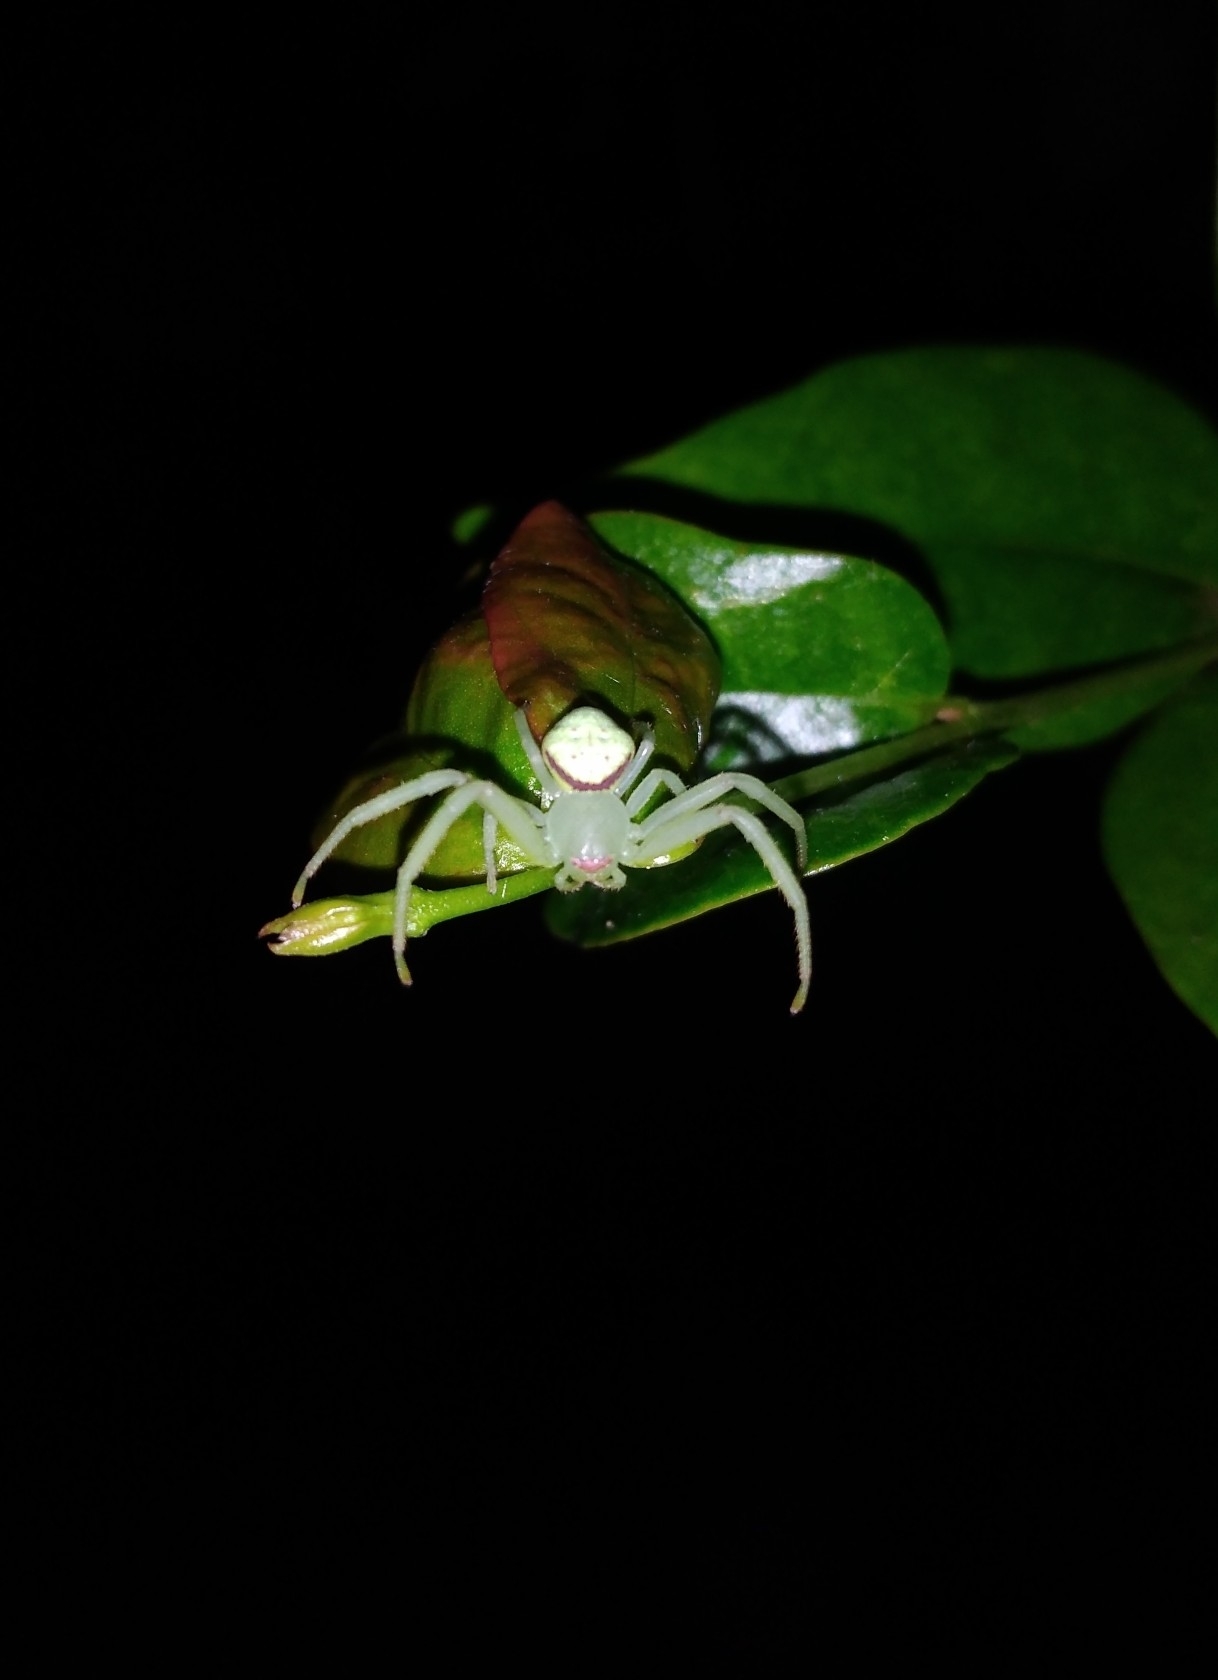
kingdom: Animalia
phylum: Arthropoda
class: Arachnida
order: Araneae
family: Thomisidae
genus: Misumenops
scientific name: Misumenops callinurus
